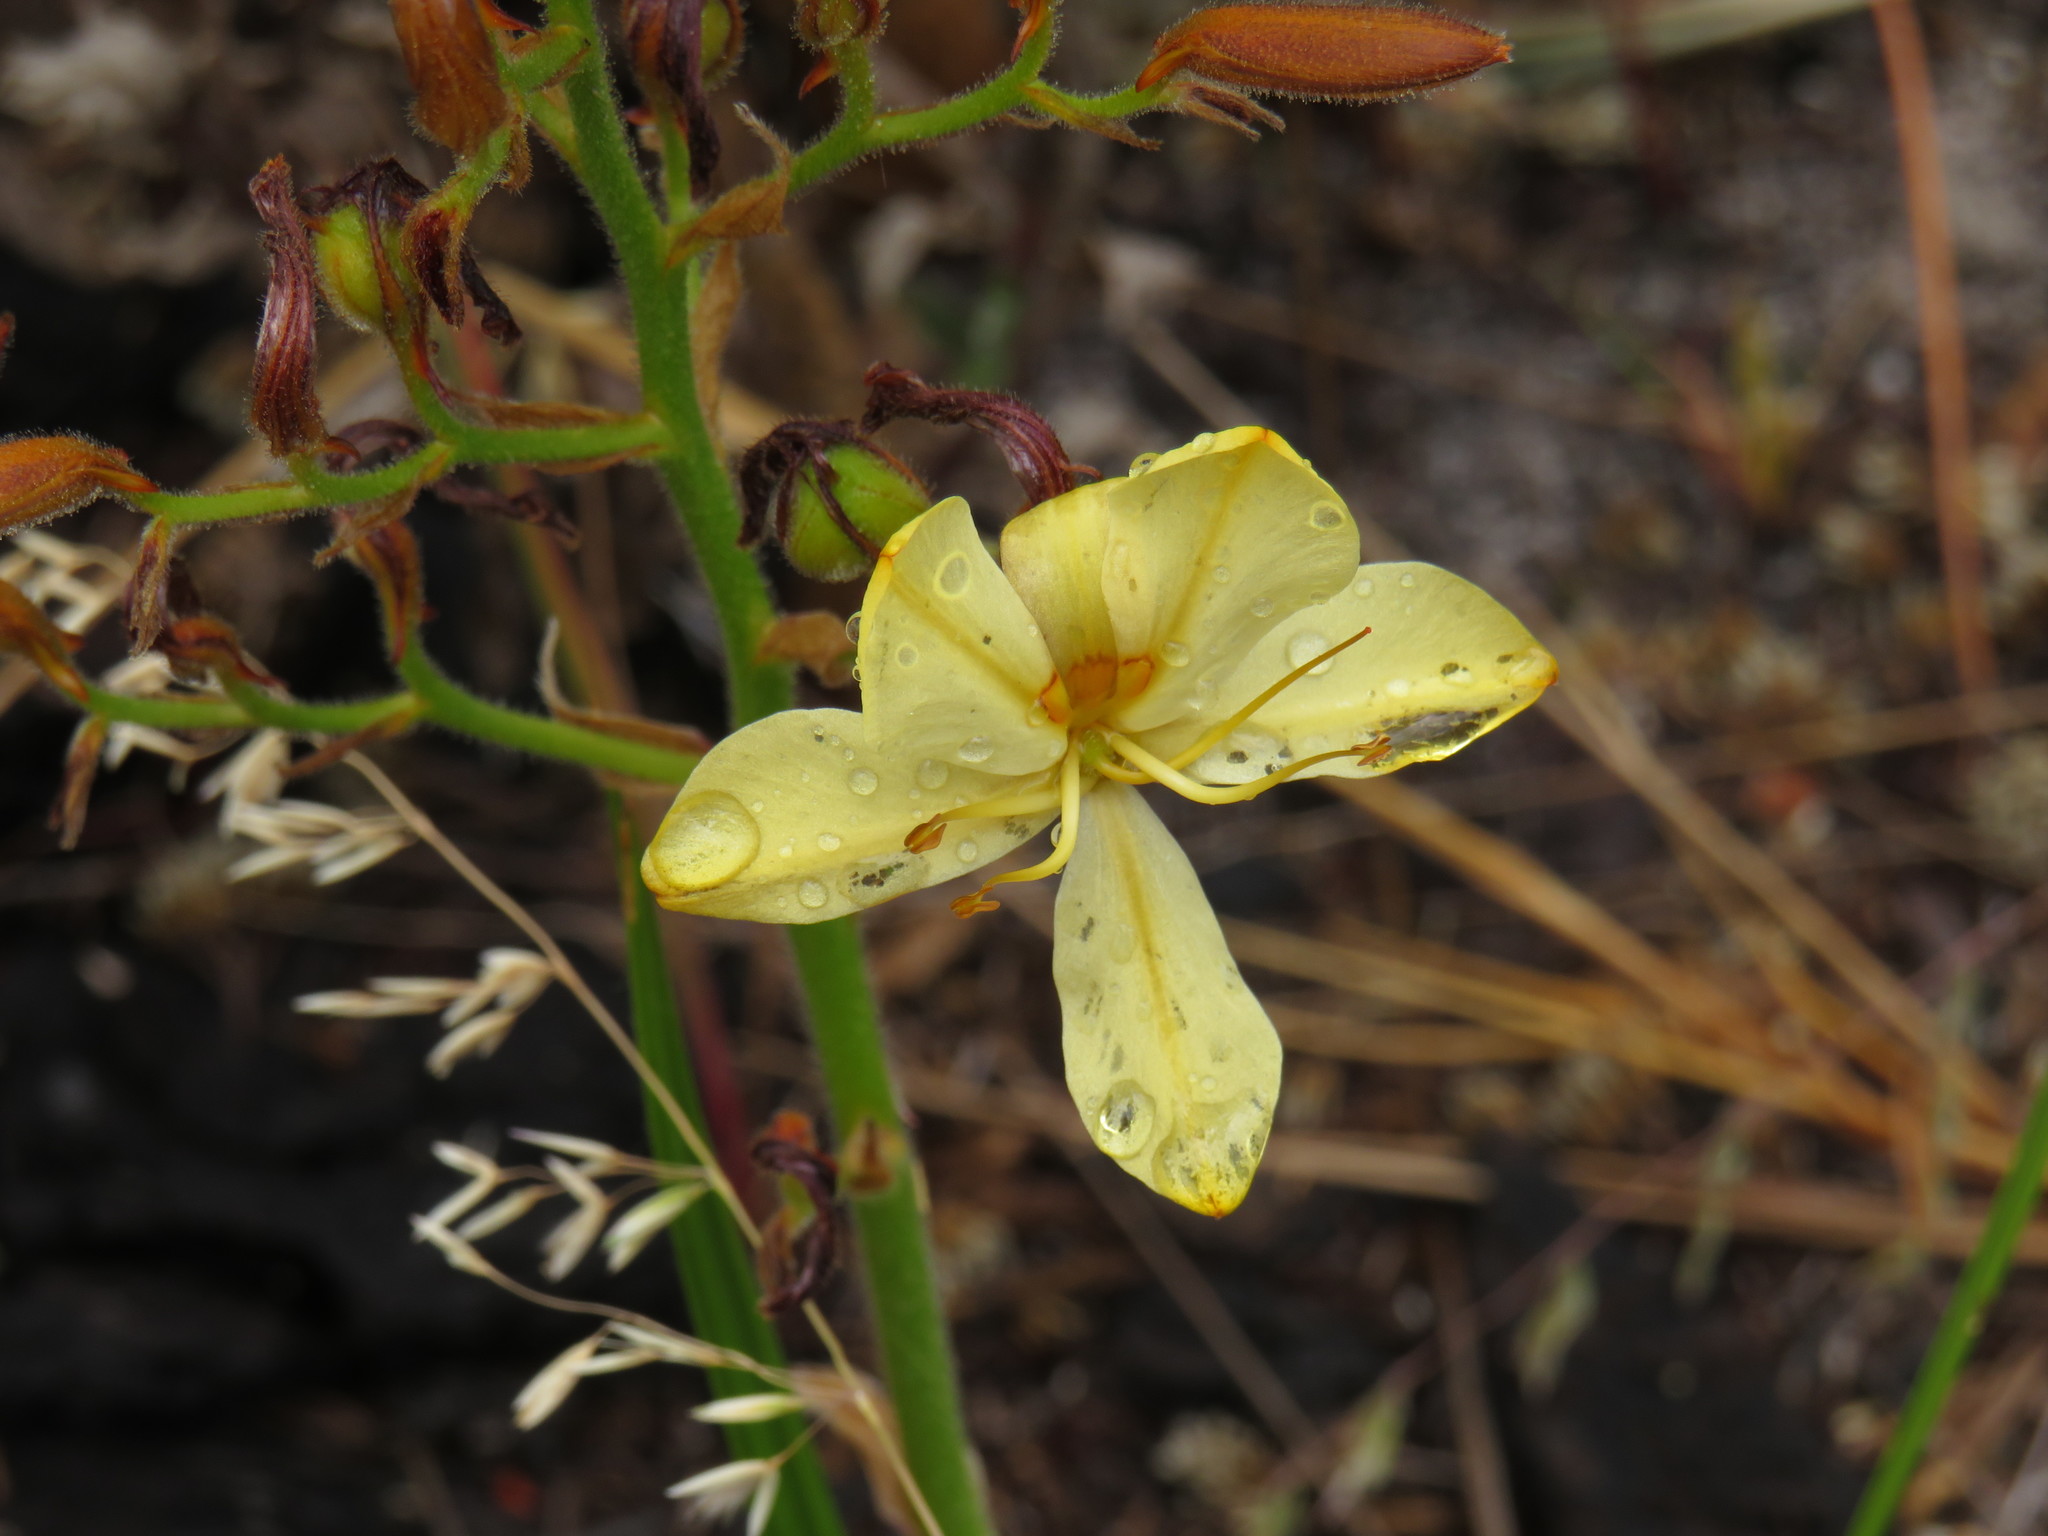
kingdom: Plantae
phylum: Tracheophyta
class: Liliopsida
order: Commelinales
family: Haemodoraceae
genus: Wachendorfia
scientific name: Wachendorfia paniculata
